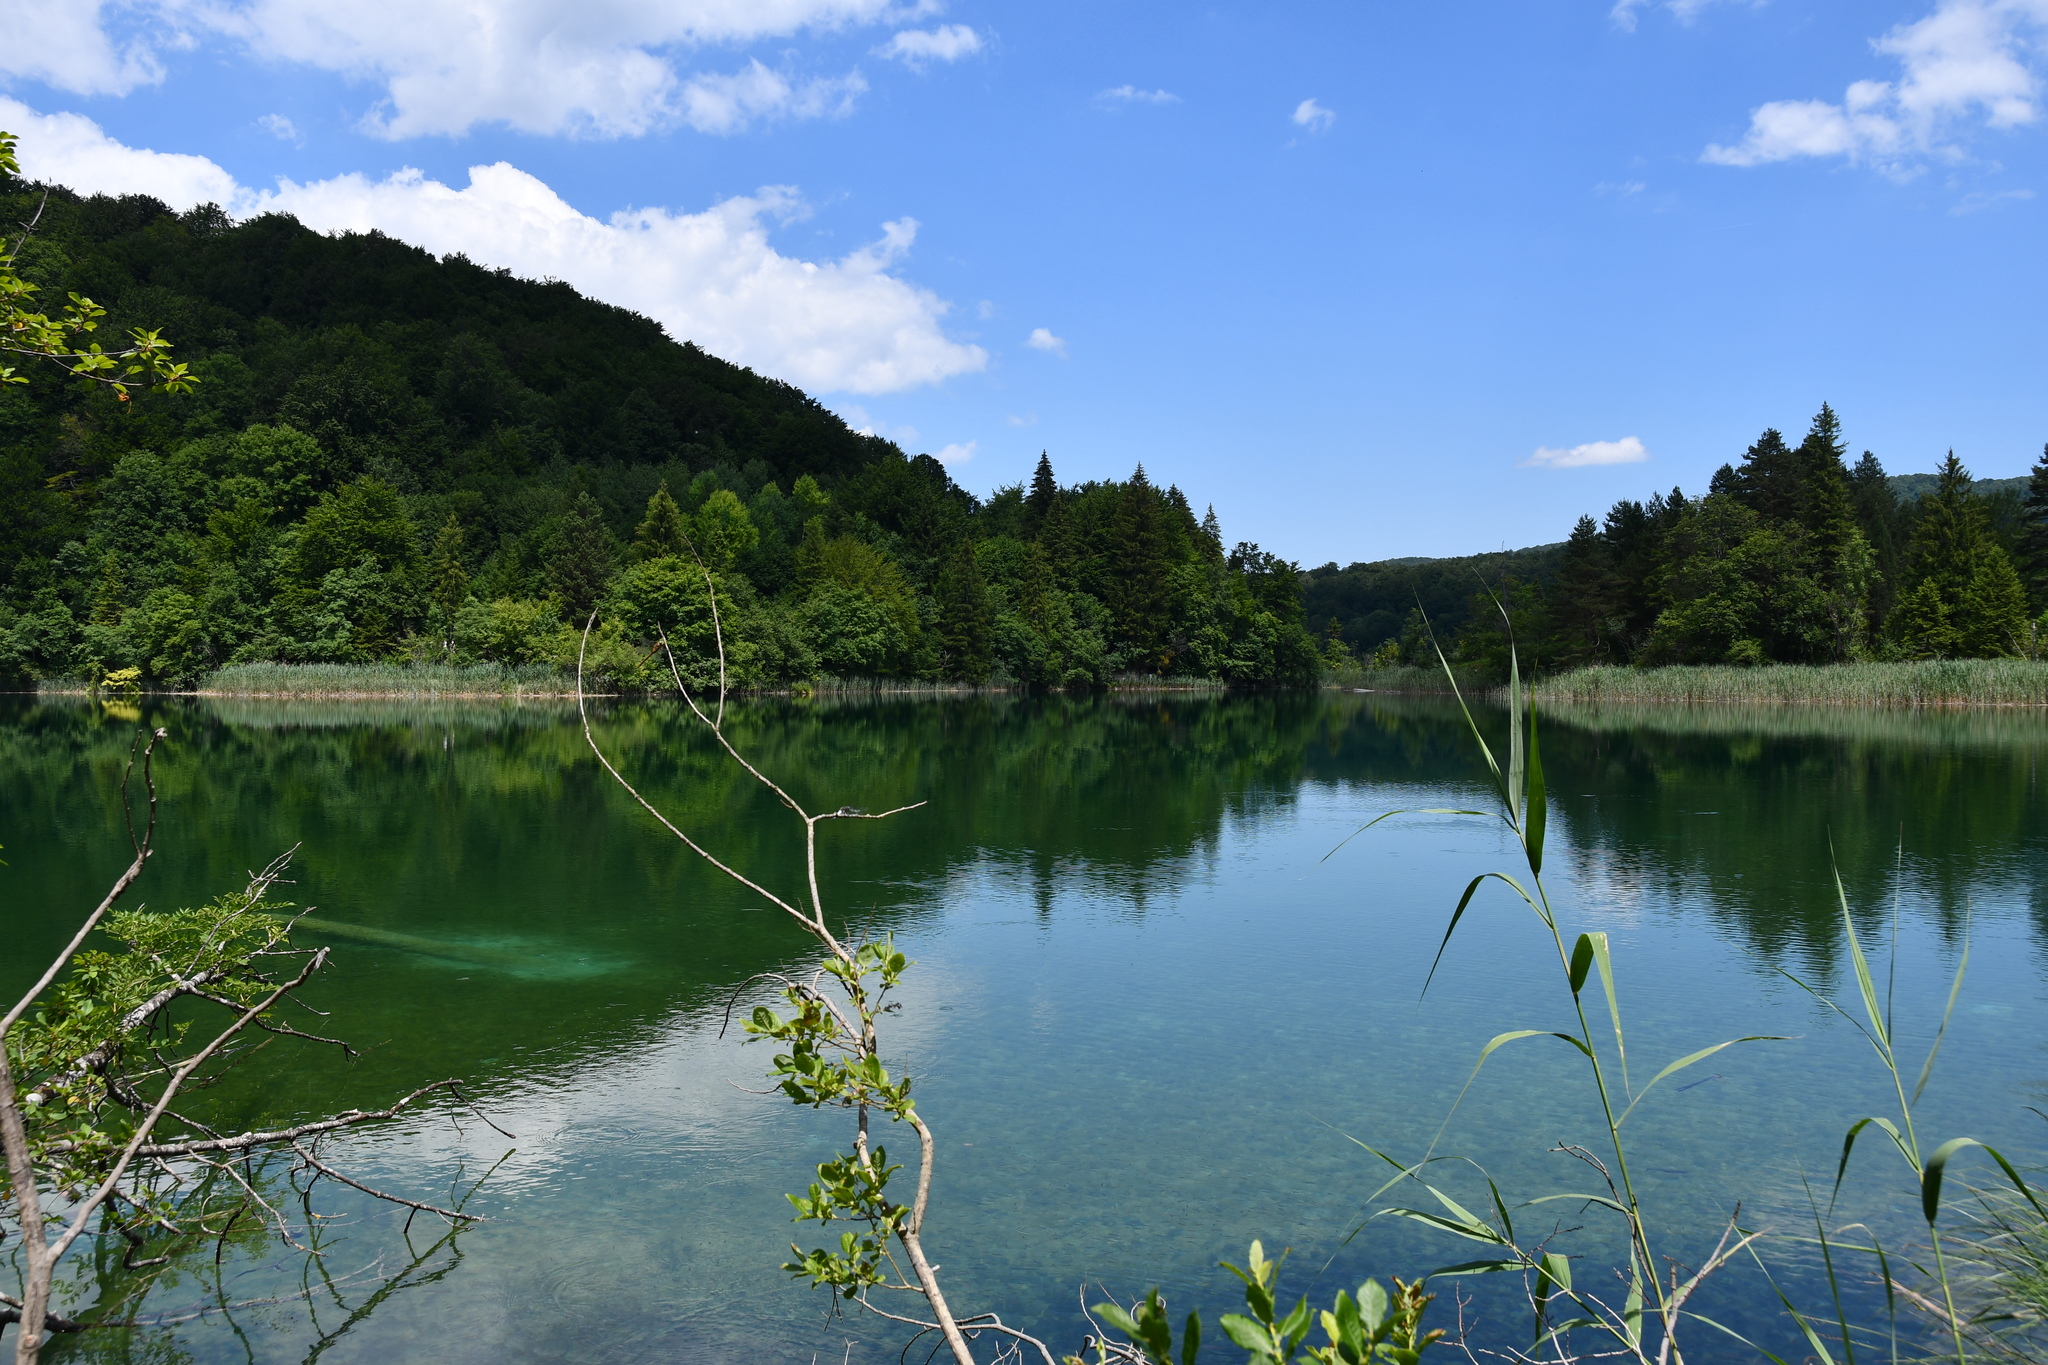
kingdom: Animalia
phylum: Arthropoda
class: Insecta
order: Odonata
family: Aeshnidae
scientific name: Aeshnidae
